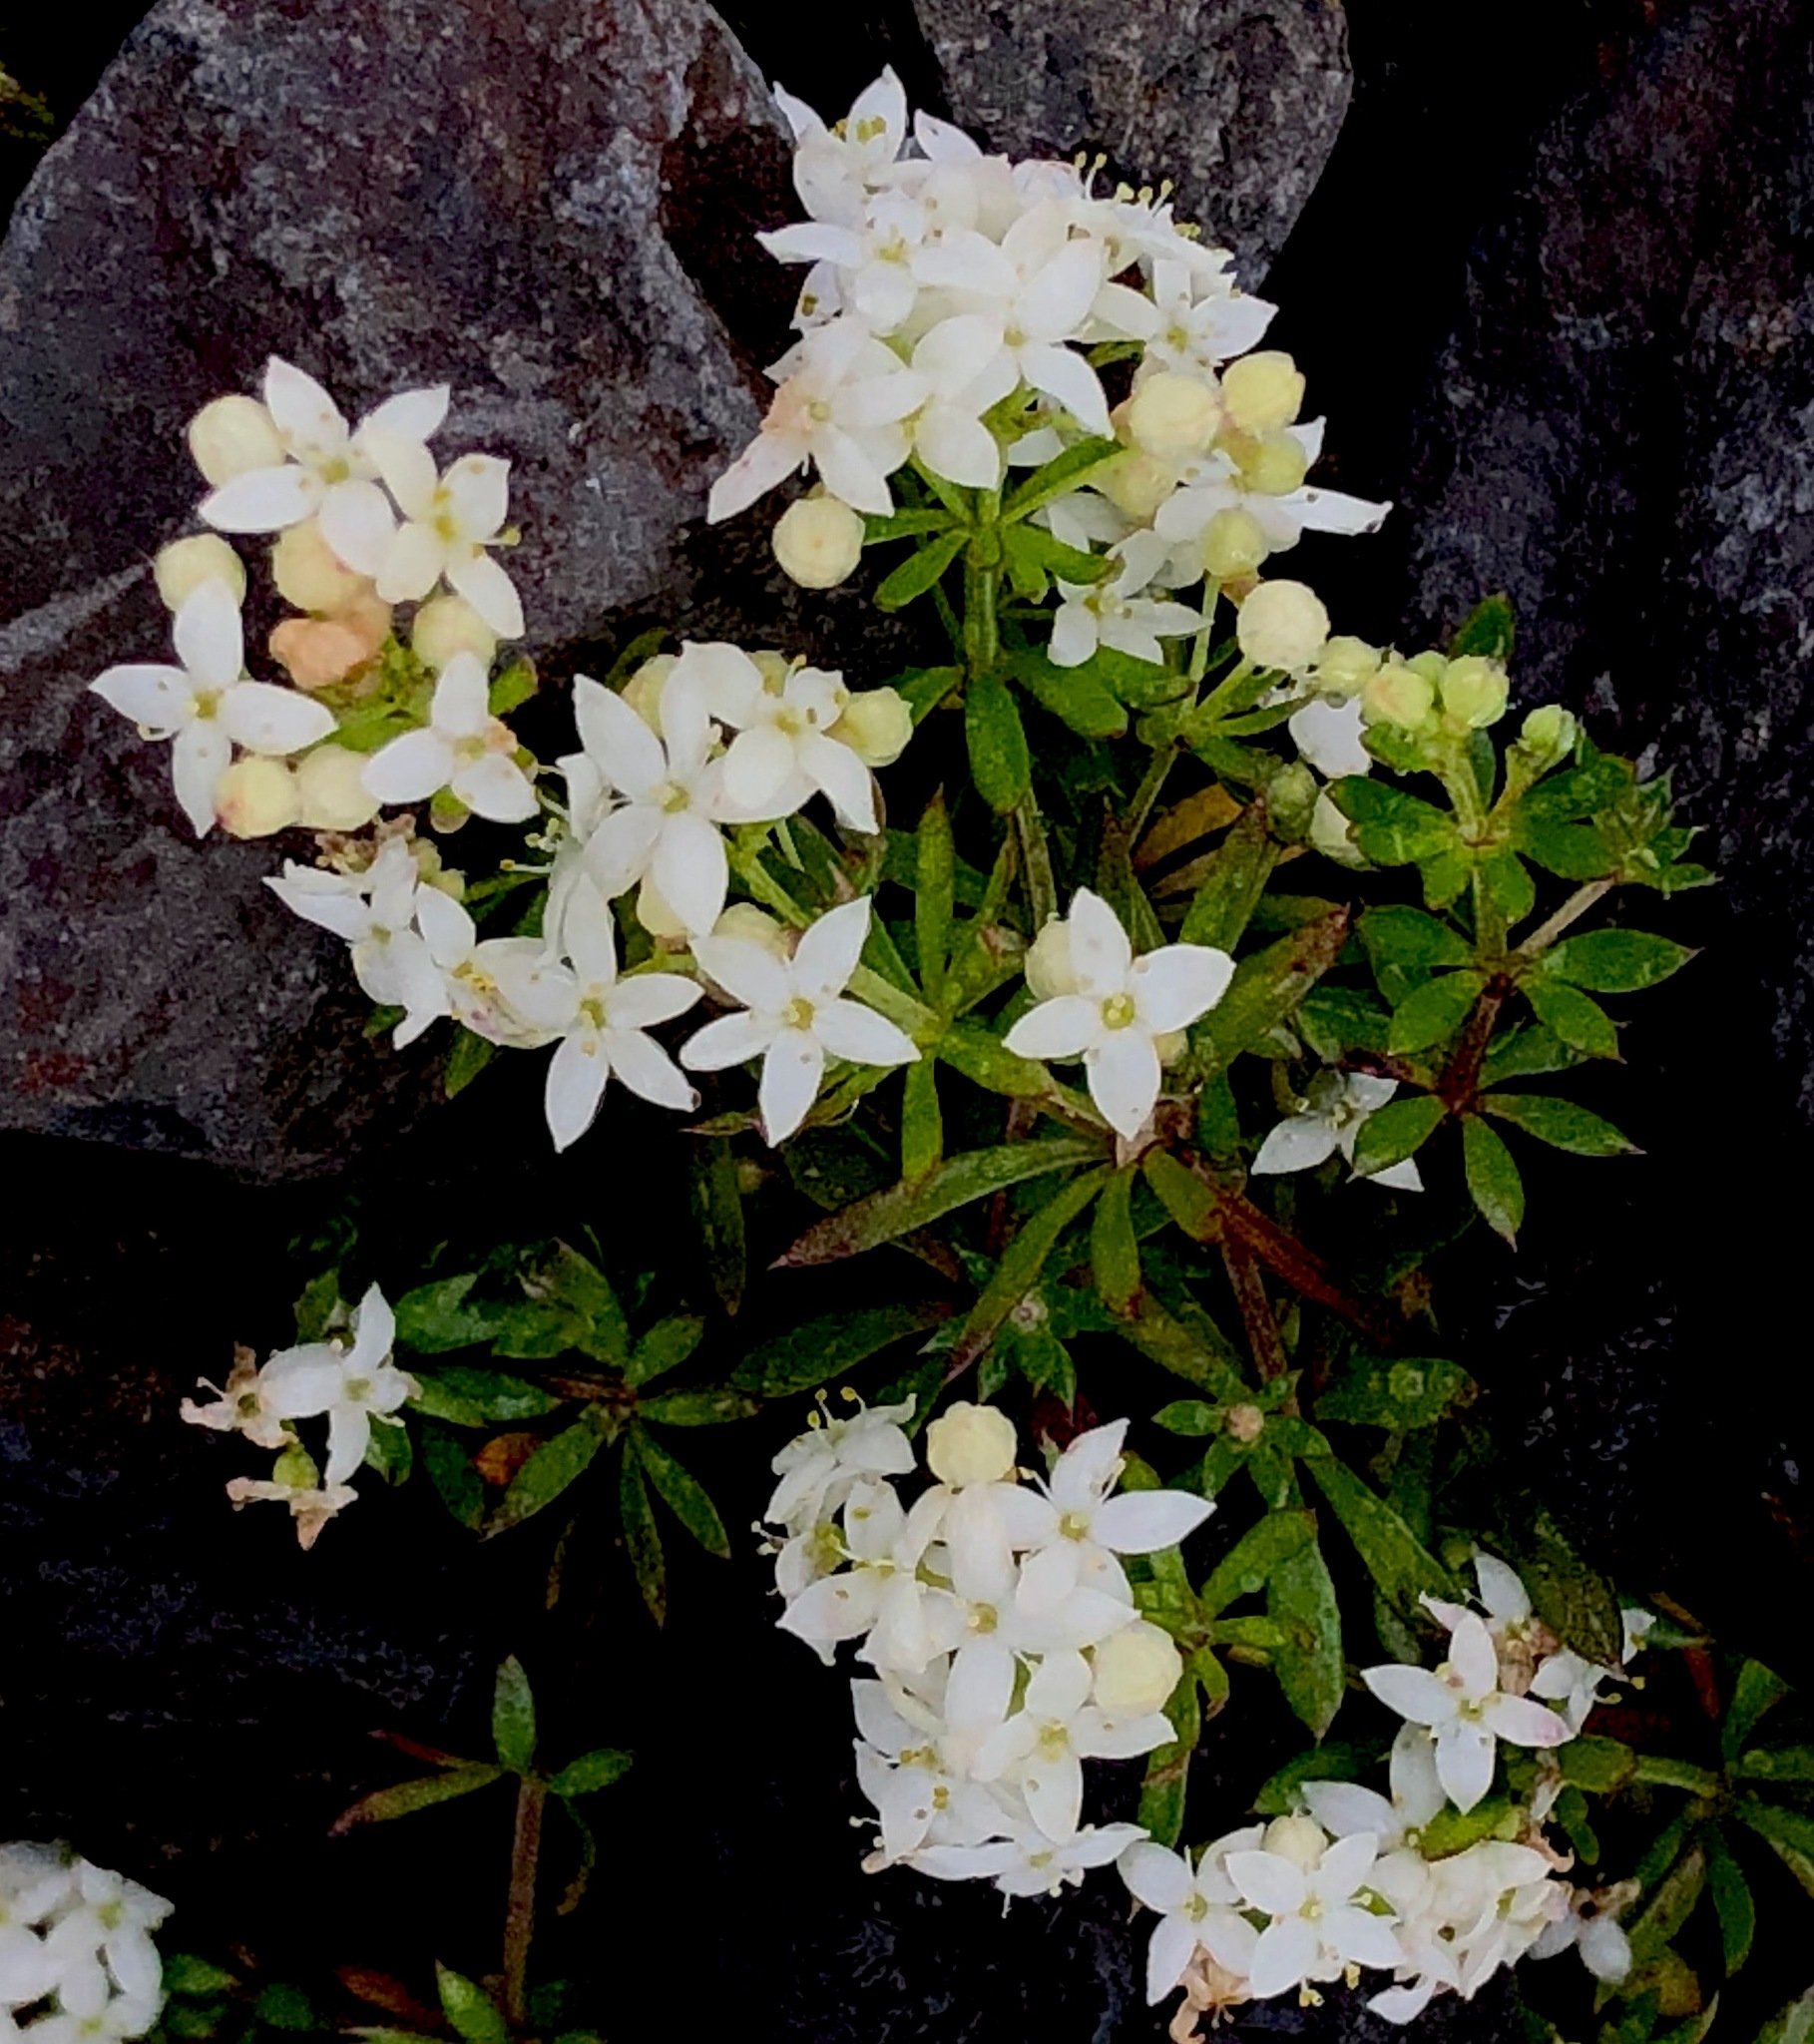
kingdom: Plantae
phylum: Tracheophyta
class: Magnoliopsida
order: Gentianales
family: Rubiaceae
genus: Galium
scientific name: Galium normanii
